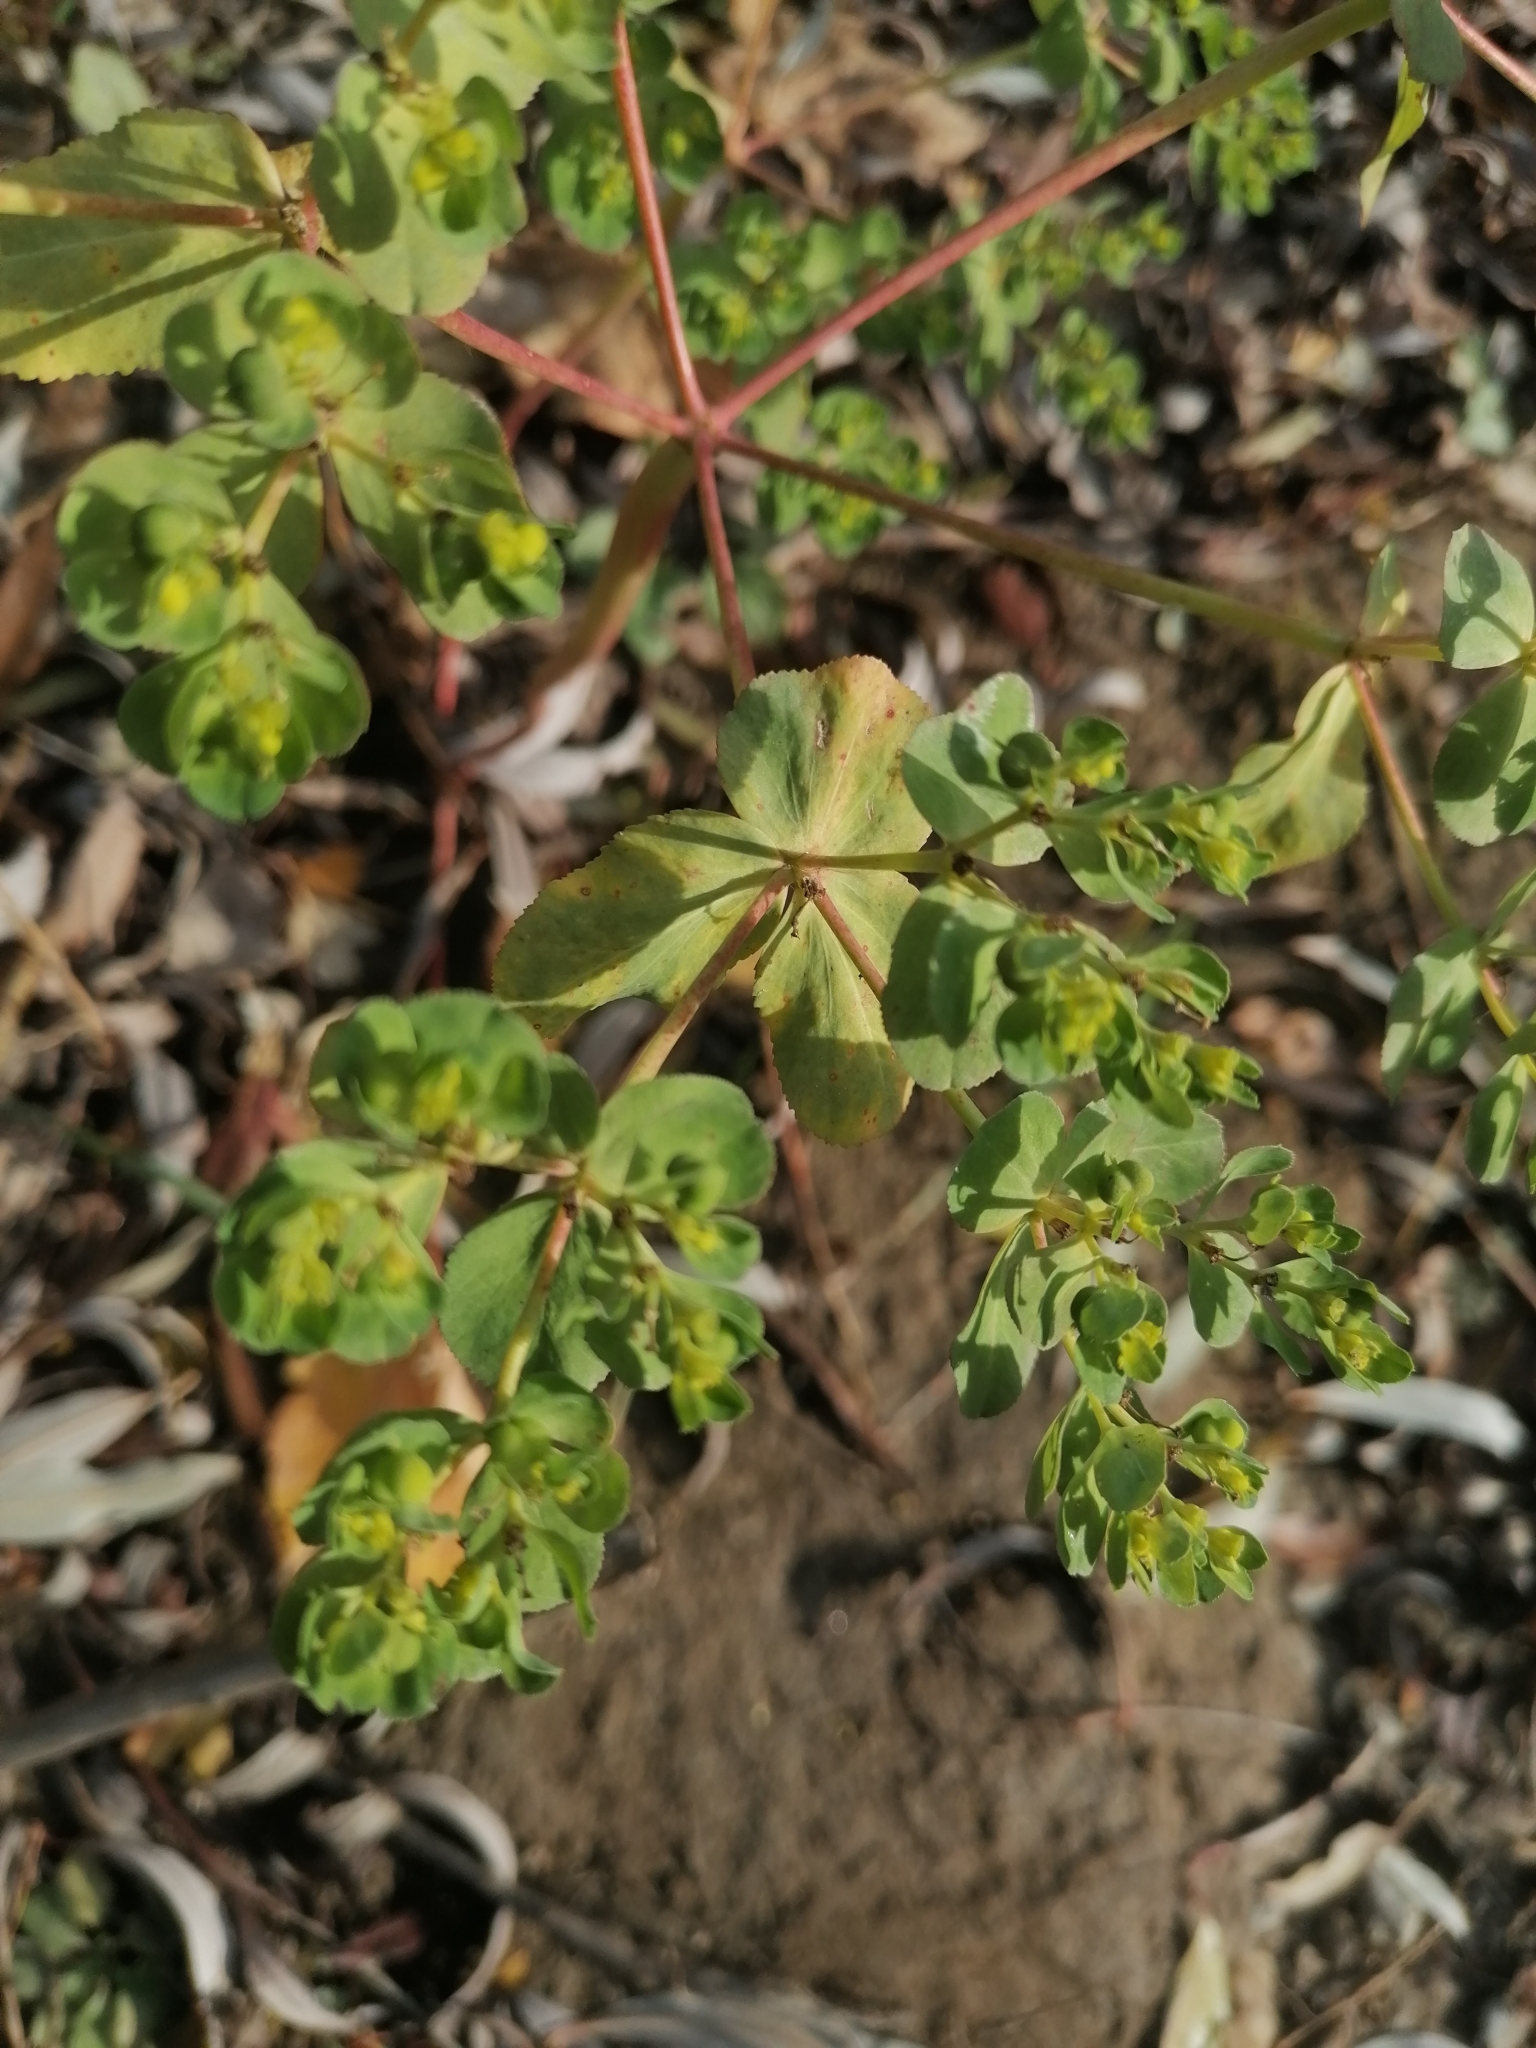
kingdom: Plantae
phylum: Tracheophyta
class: Magnoliopsida
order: Malpighiales
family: Euphorbiaceae
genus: Euphorbia
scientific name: Euphorbia helioscopia
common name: Sun spurge
